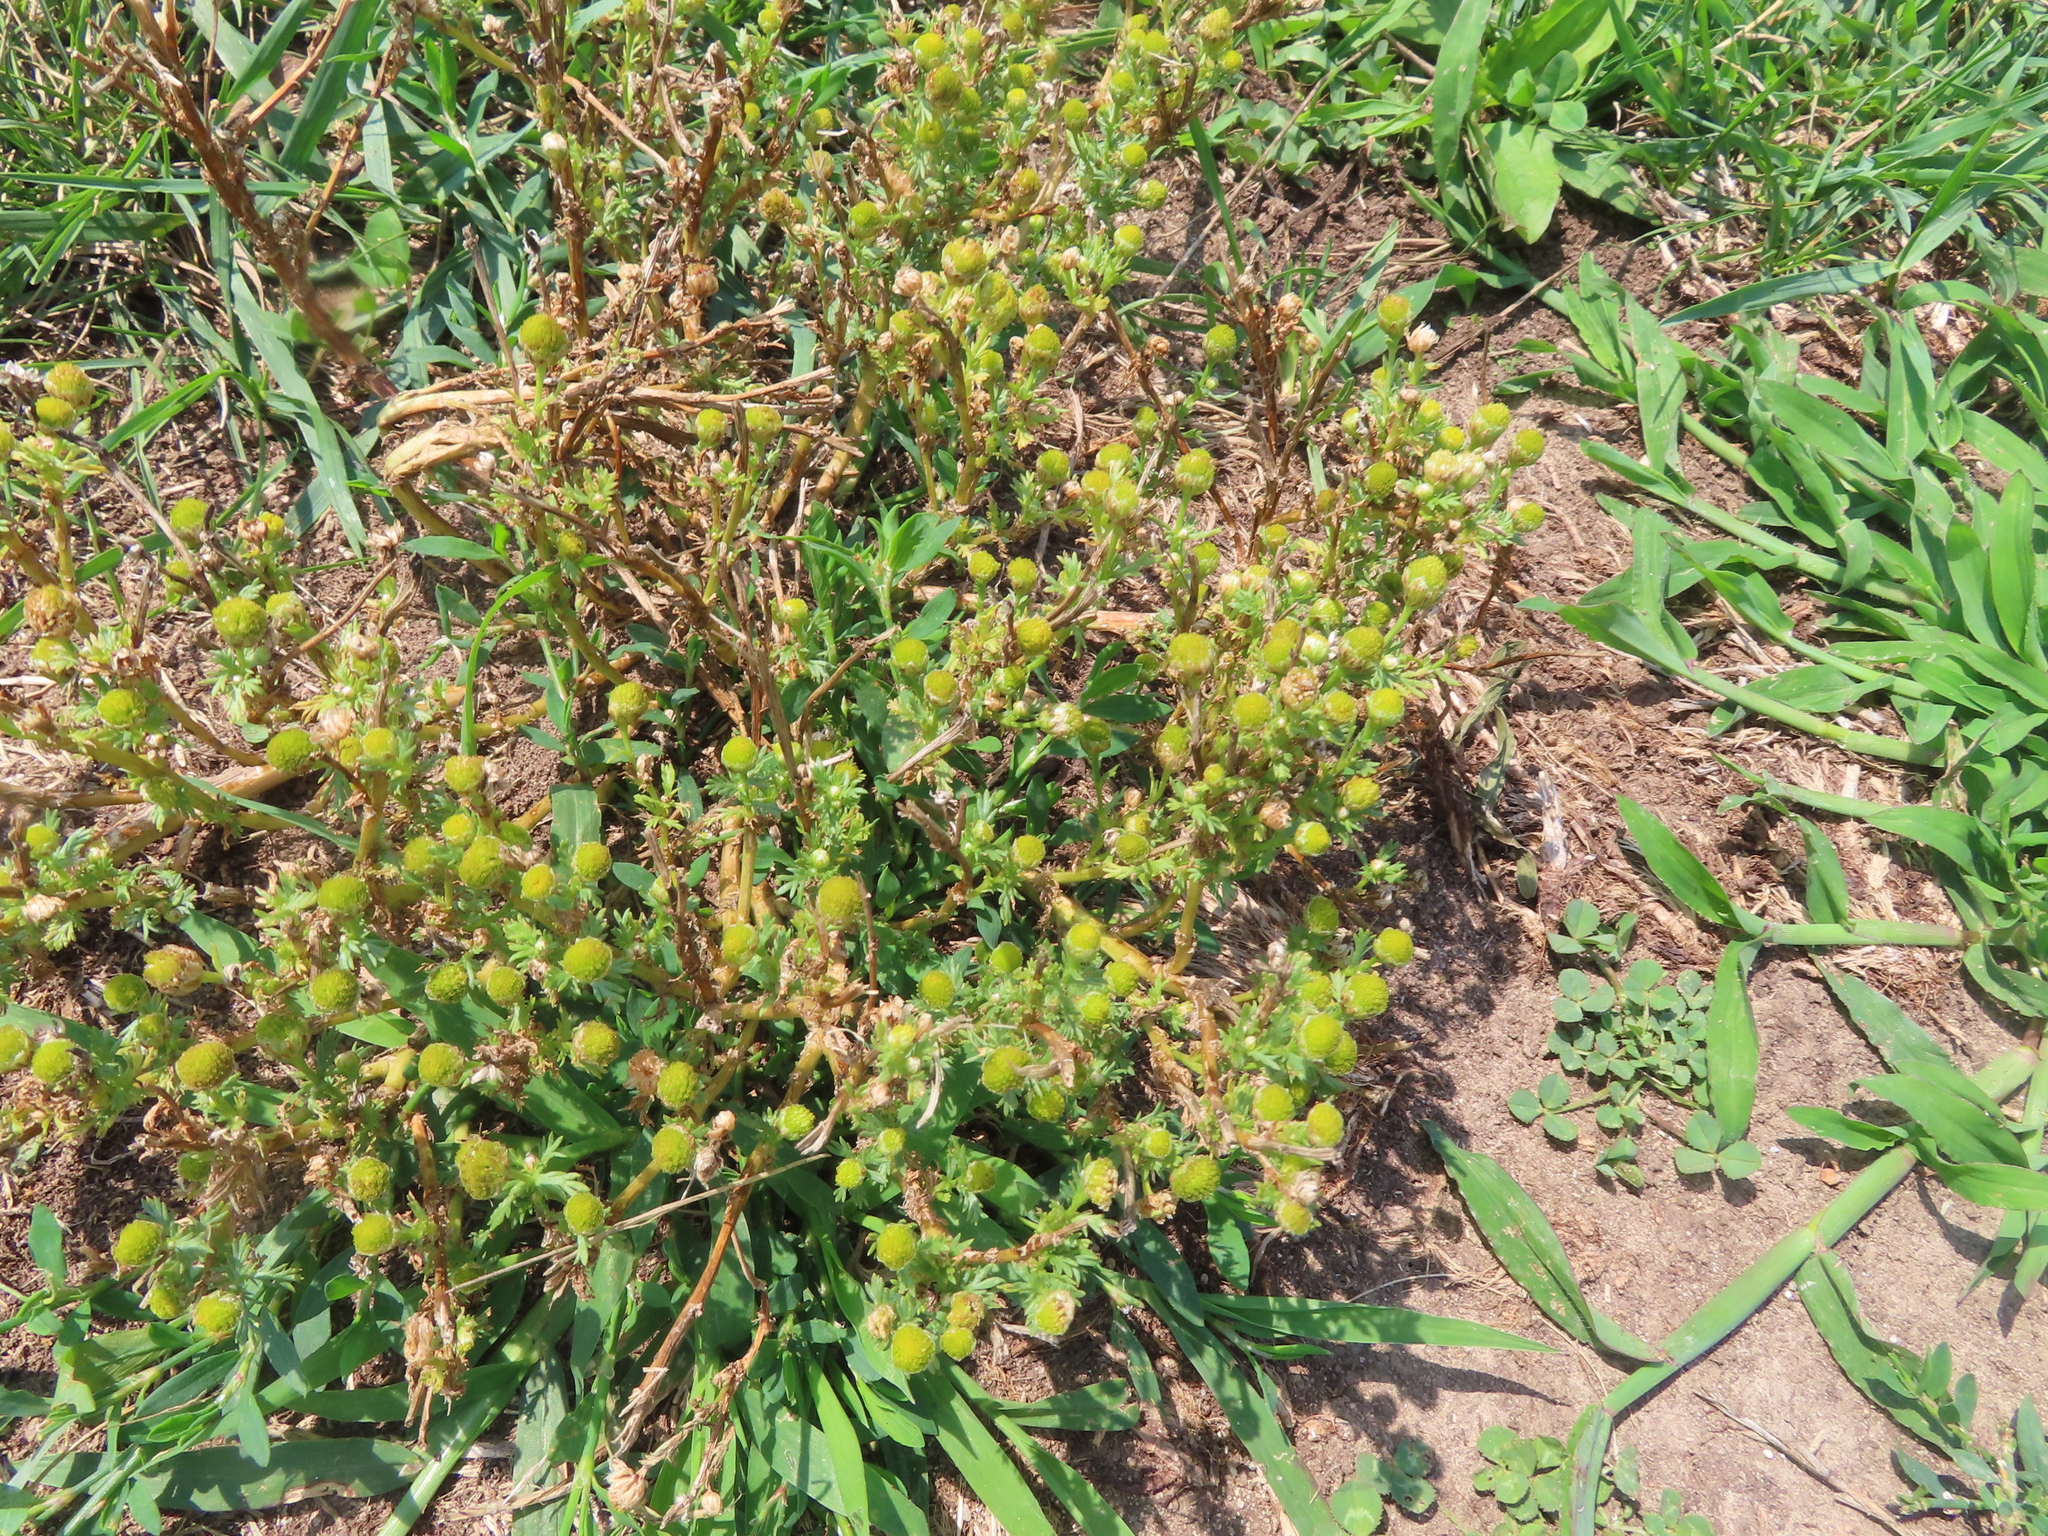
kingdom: Plantae
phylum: Tracheophyta
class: Magnoliopsida
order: Asterales
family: Asteraceae
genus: Matricaria
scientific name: Matricaria discoidea
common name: Disc mayweed
